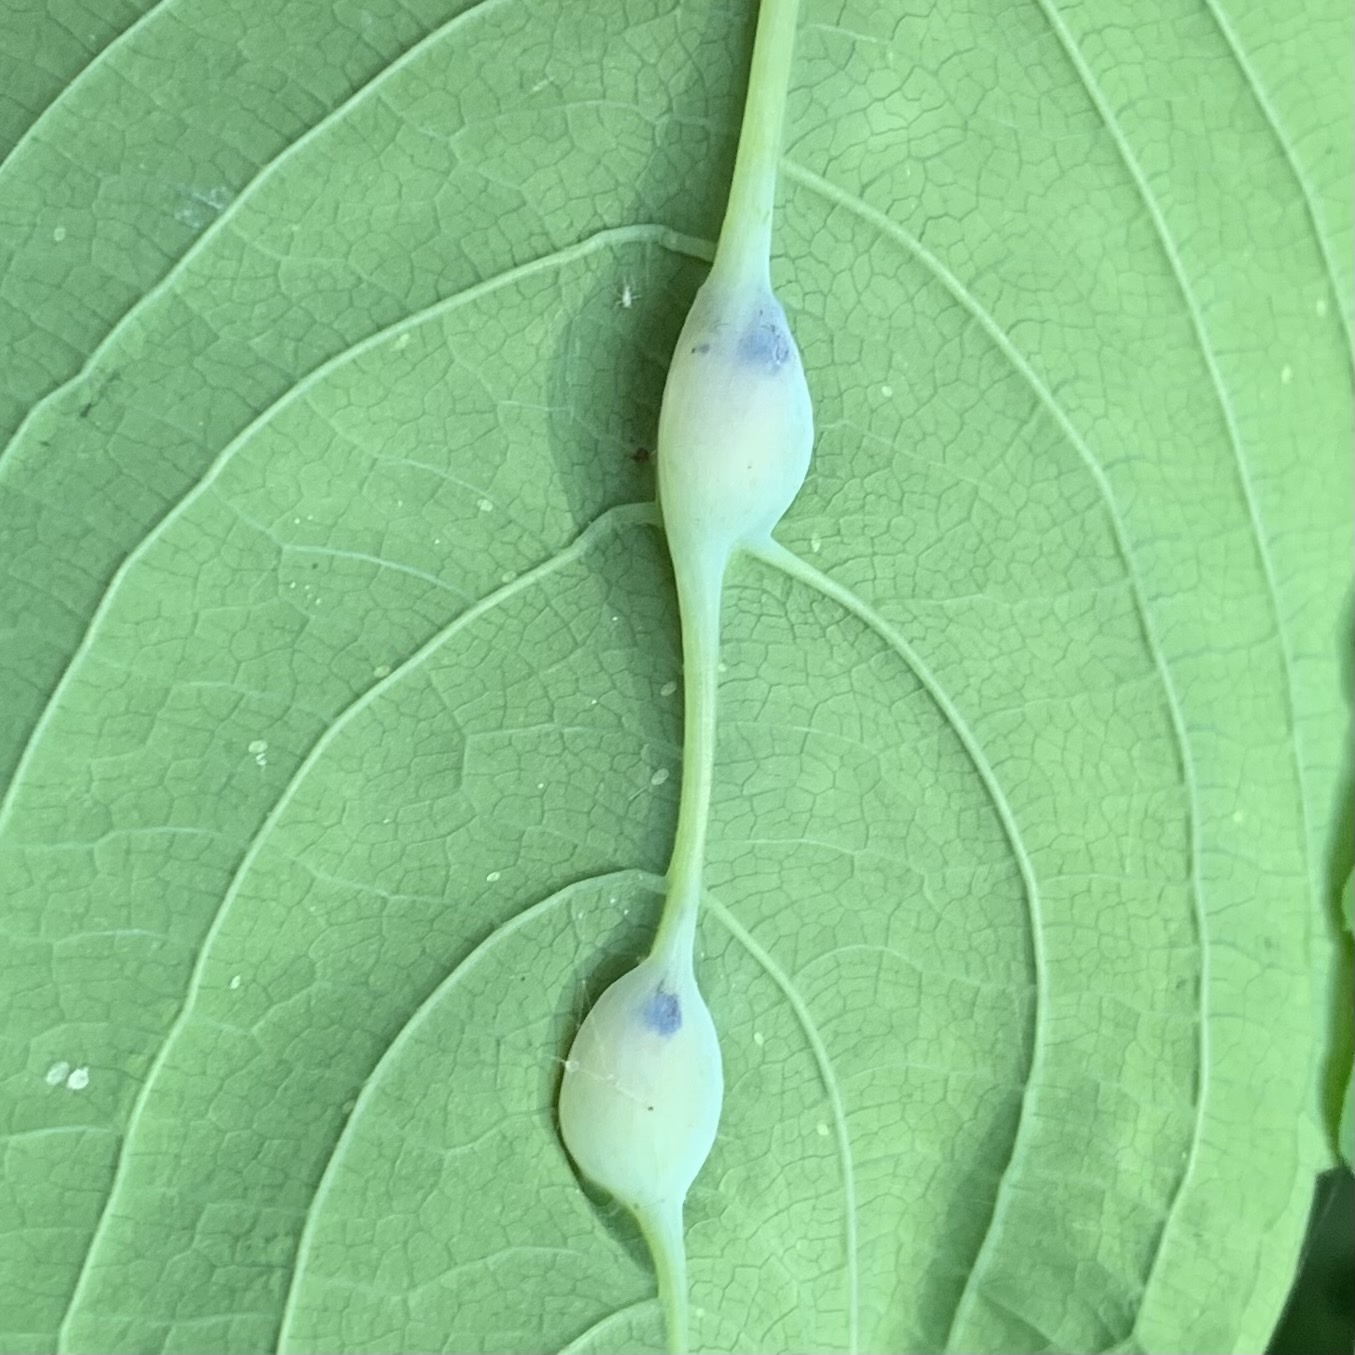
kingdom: Animalia
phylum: Arthropoda
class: Insecta
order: Diptera
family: Cecidomyiidae
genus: Neolasioptera
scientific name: Neolasioptera impatientifolia
